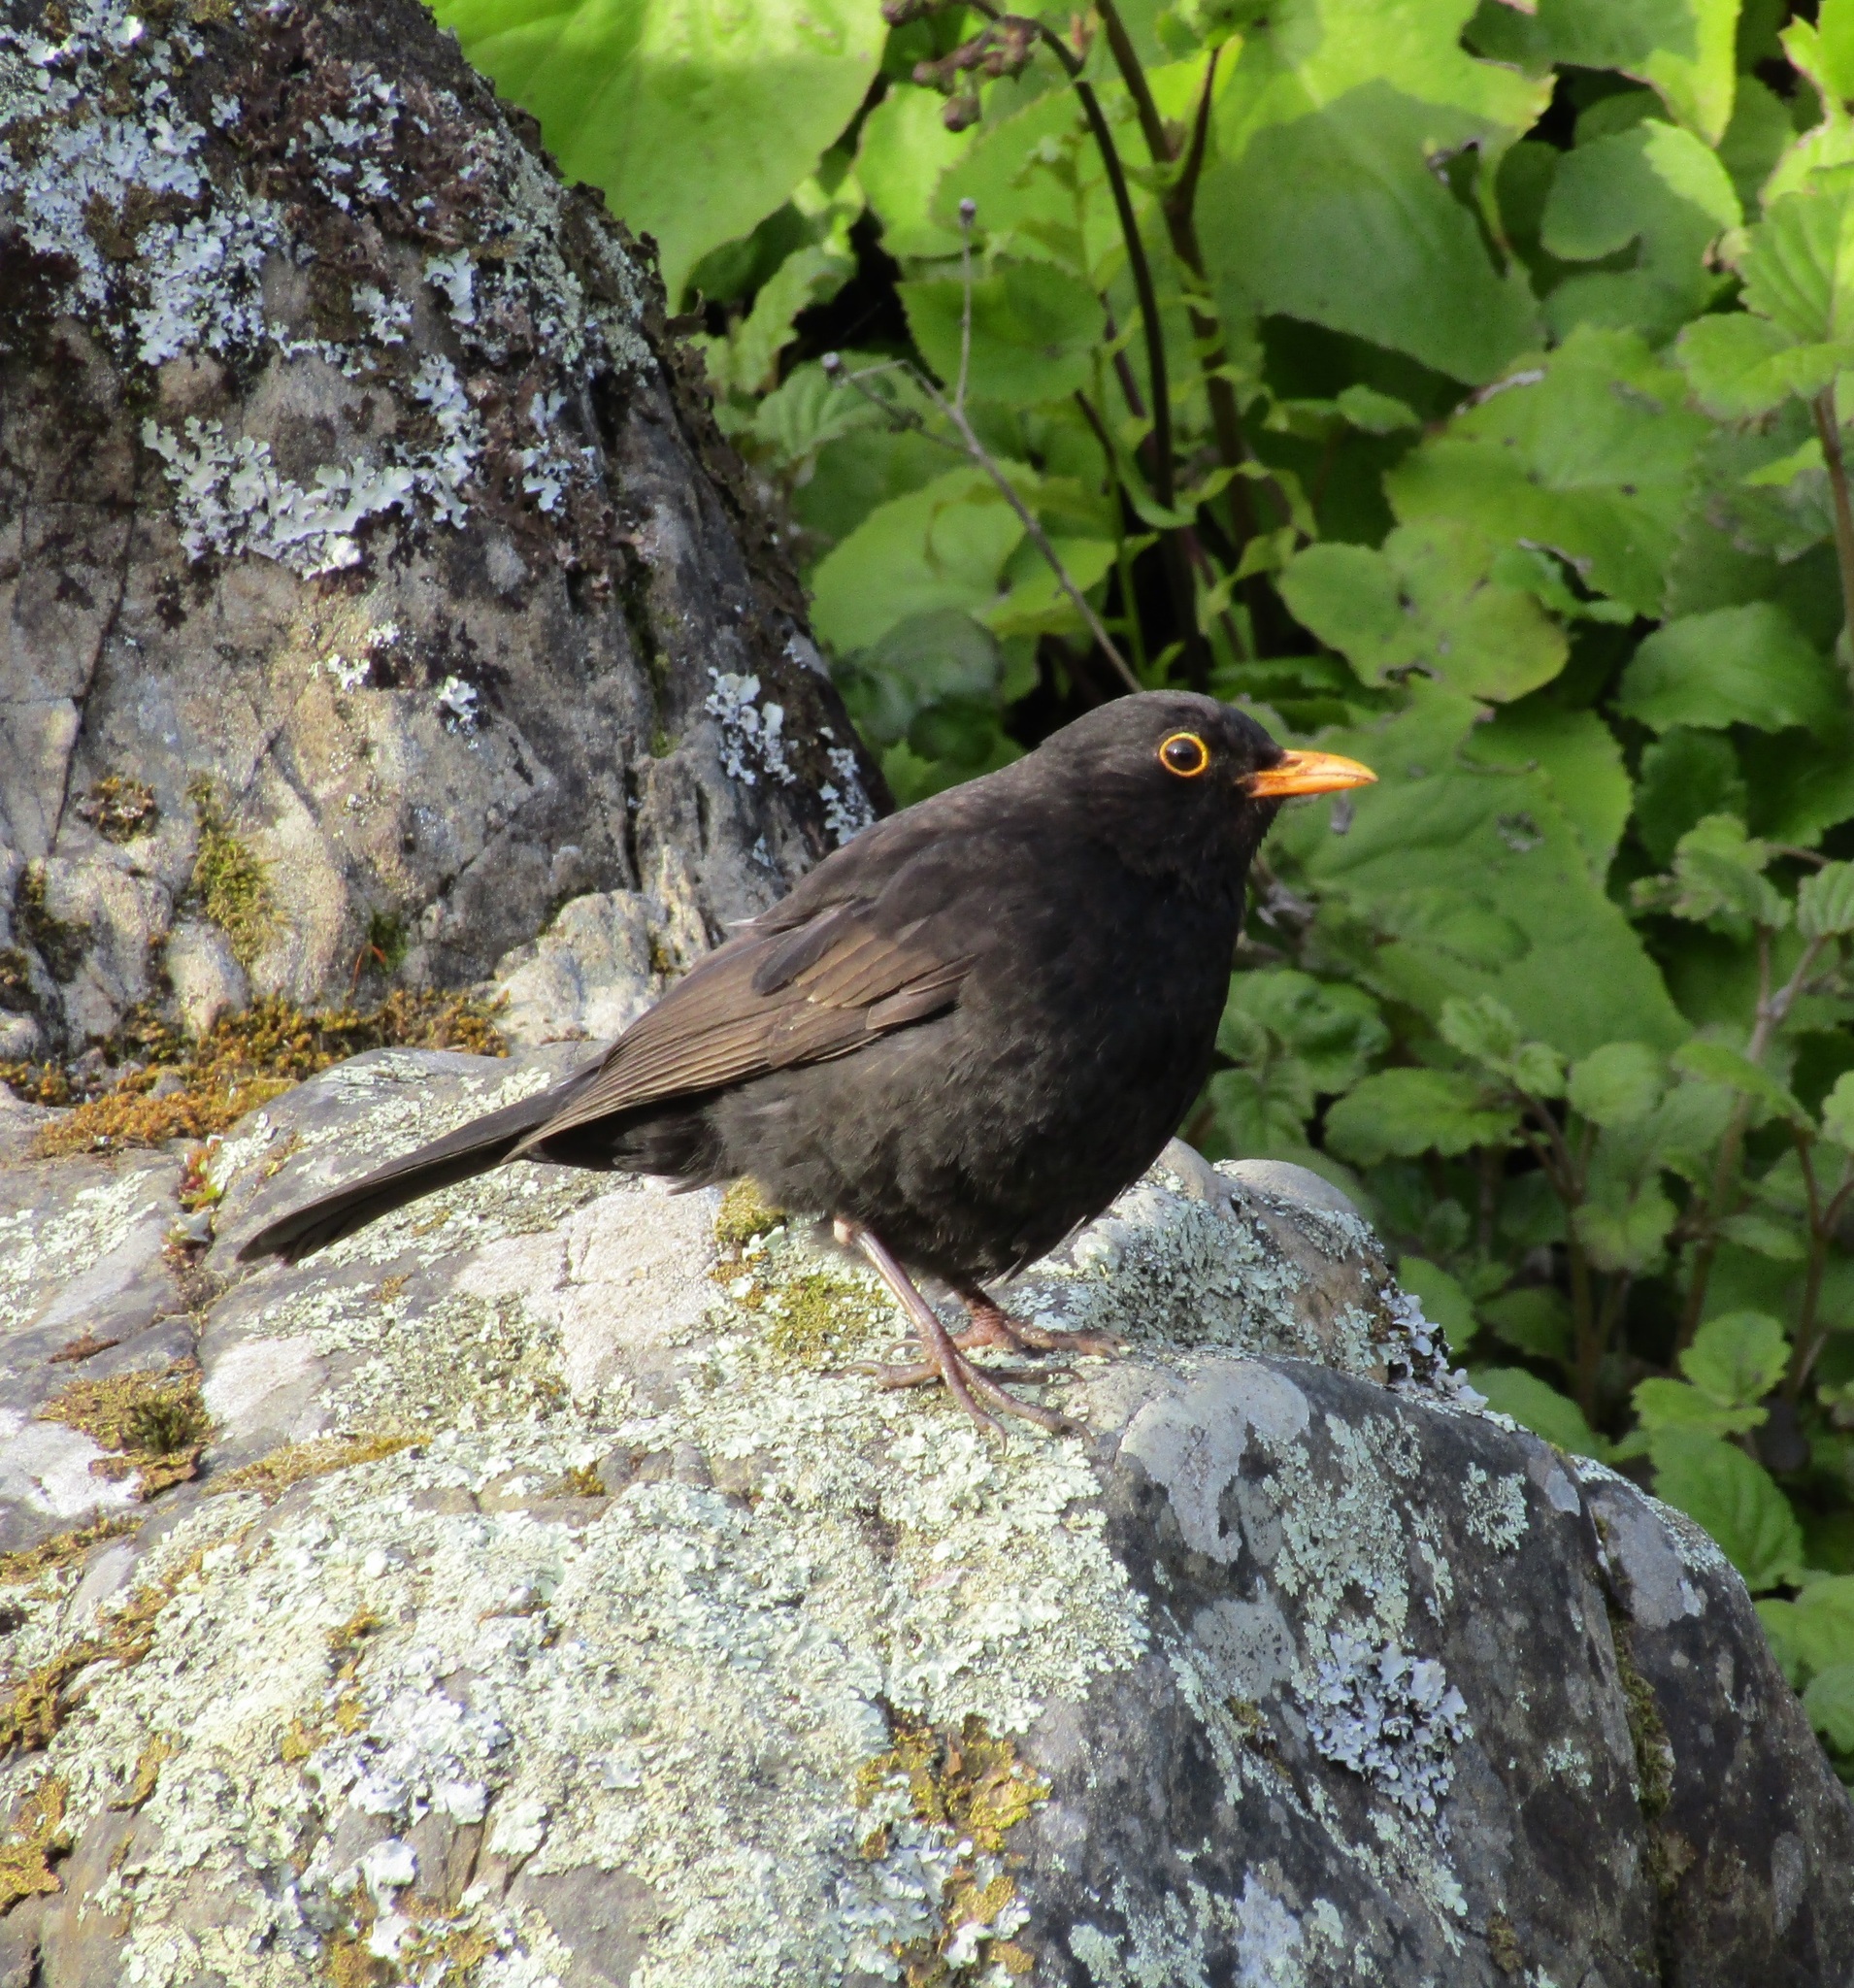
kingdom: Animalia
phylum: Chordata
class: Aves
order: Passeriformes
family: Turdidae
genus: Turdus
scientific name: Turdus merula
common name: Common blackbird
